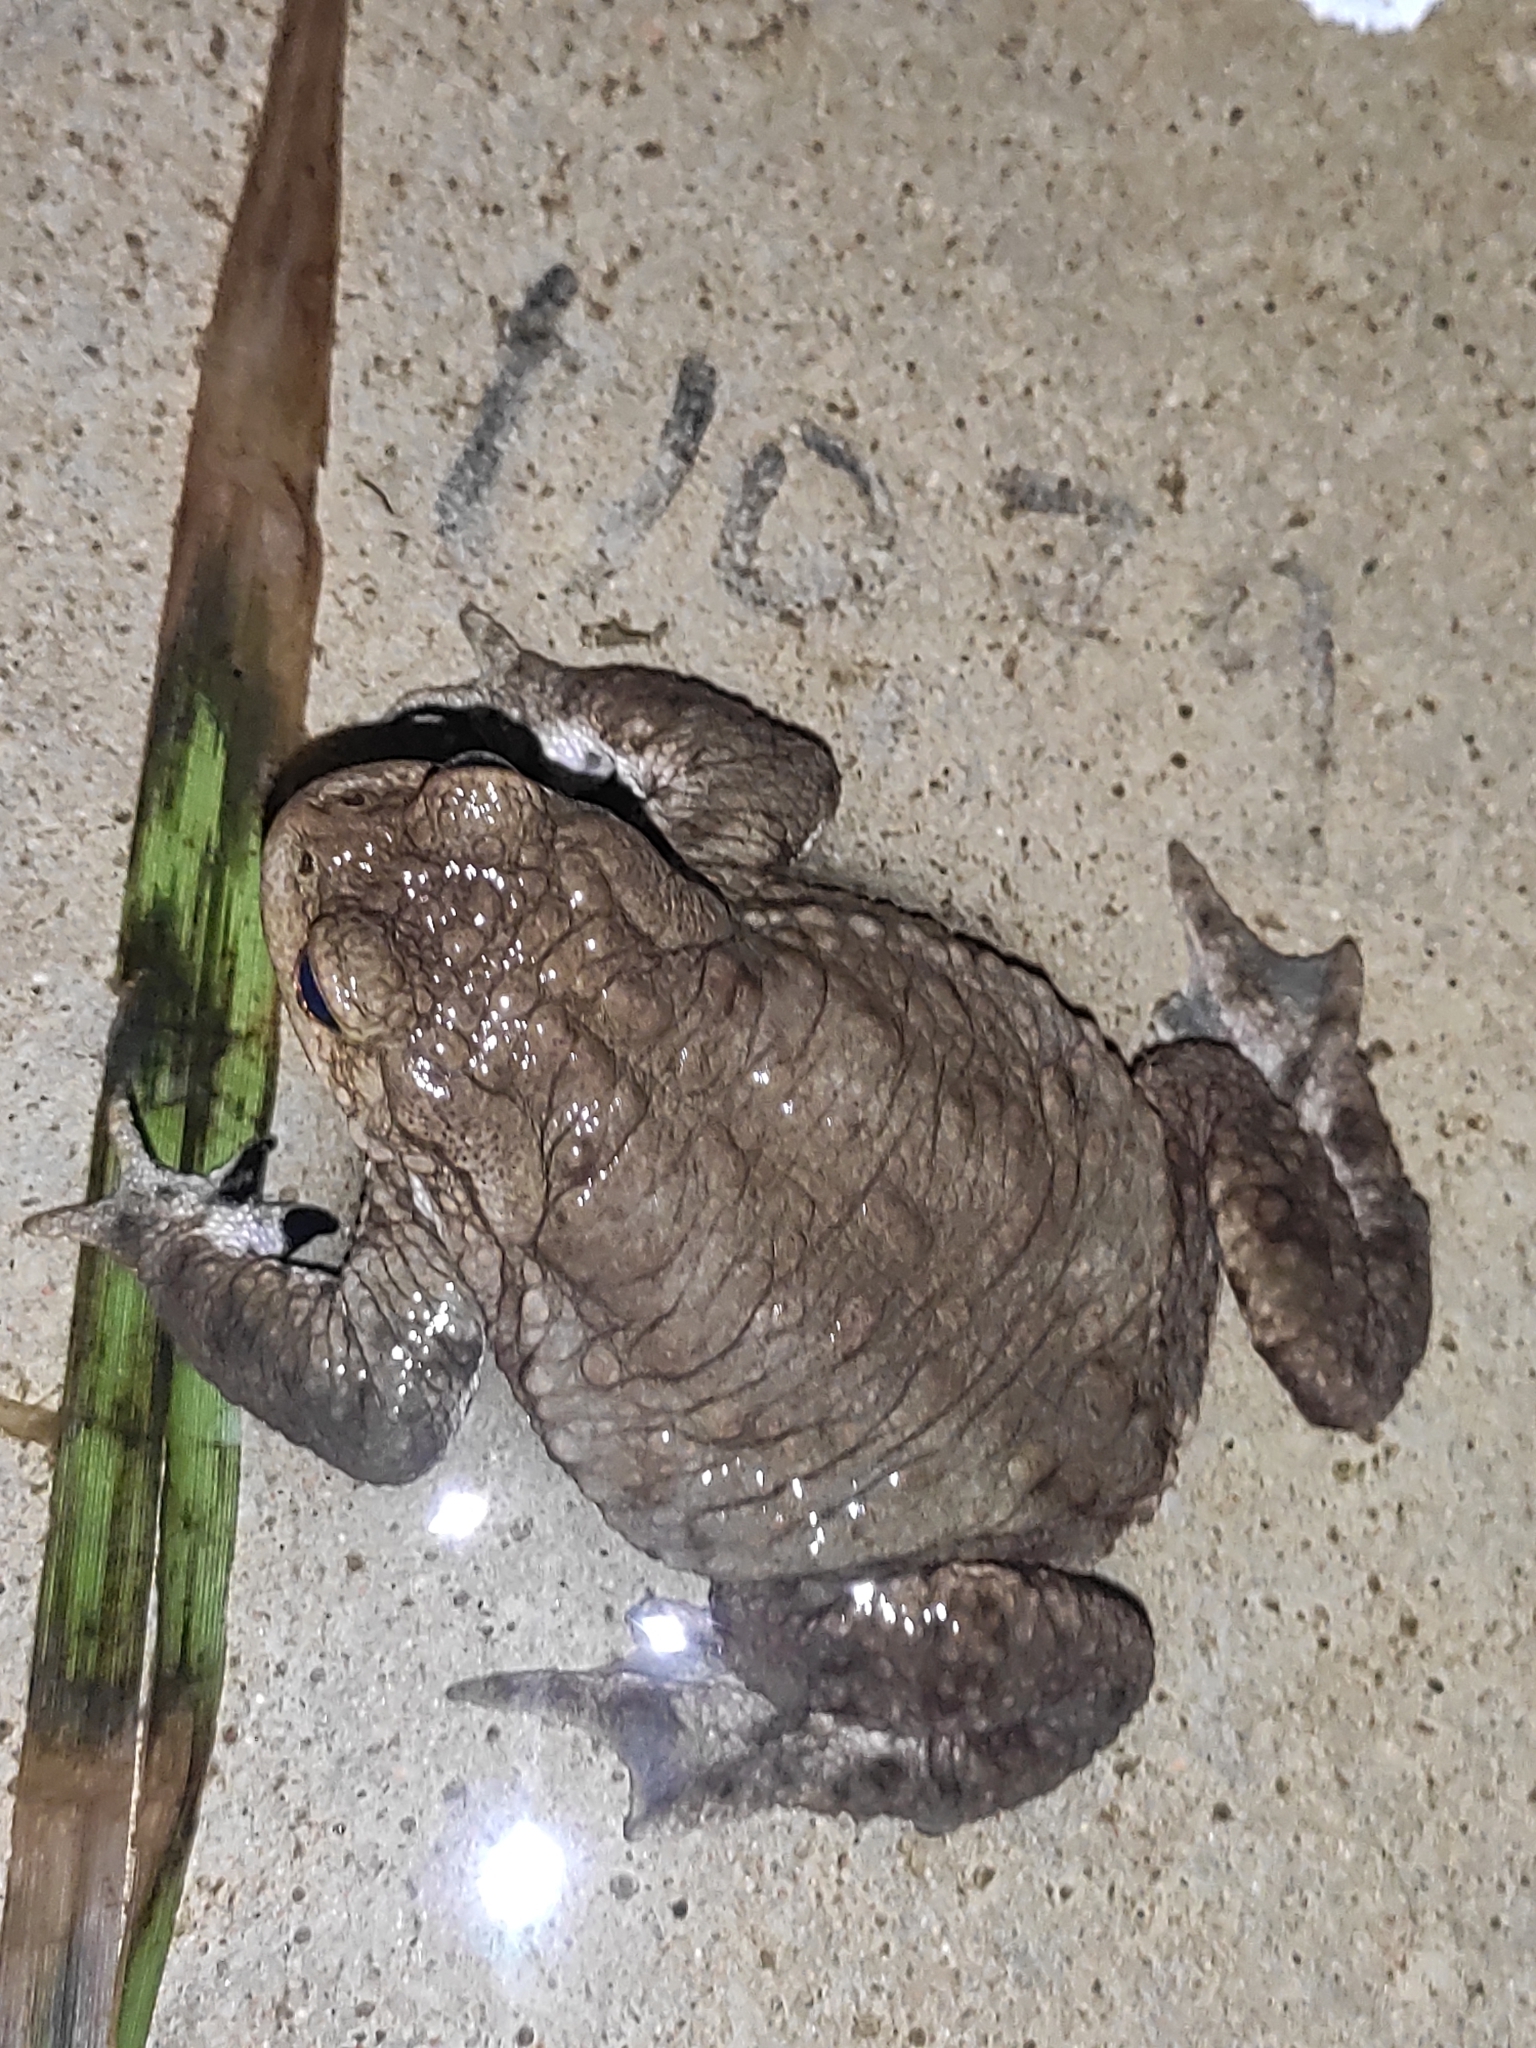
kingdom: Animalia
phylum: Chordata
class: Amphibia
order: Anura
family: Bufonidae
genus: Bufo
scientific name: Bufo bufo
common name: Common toad
